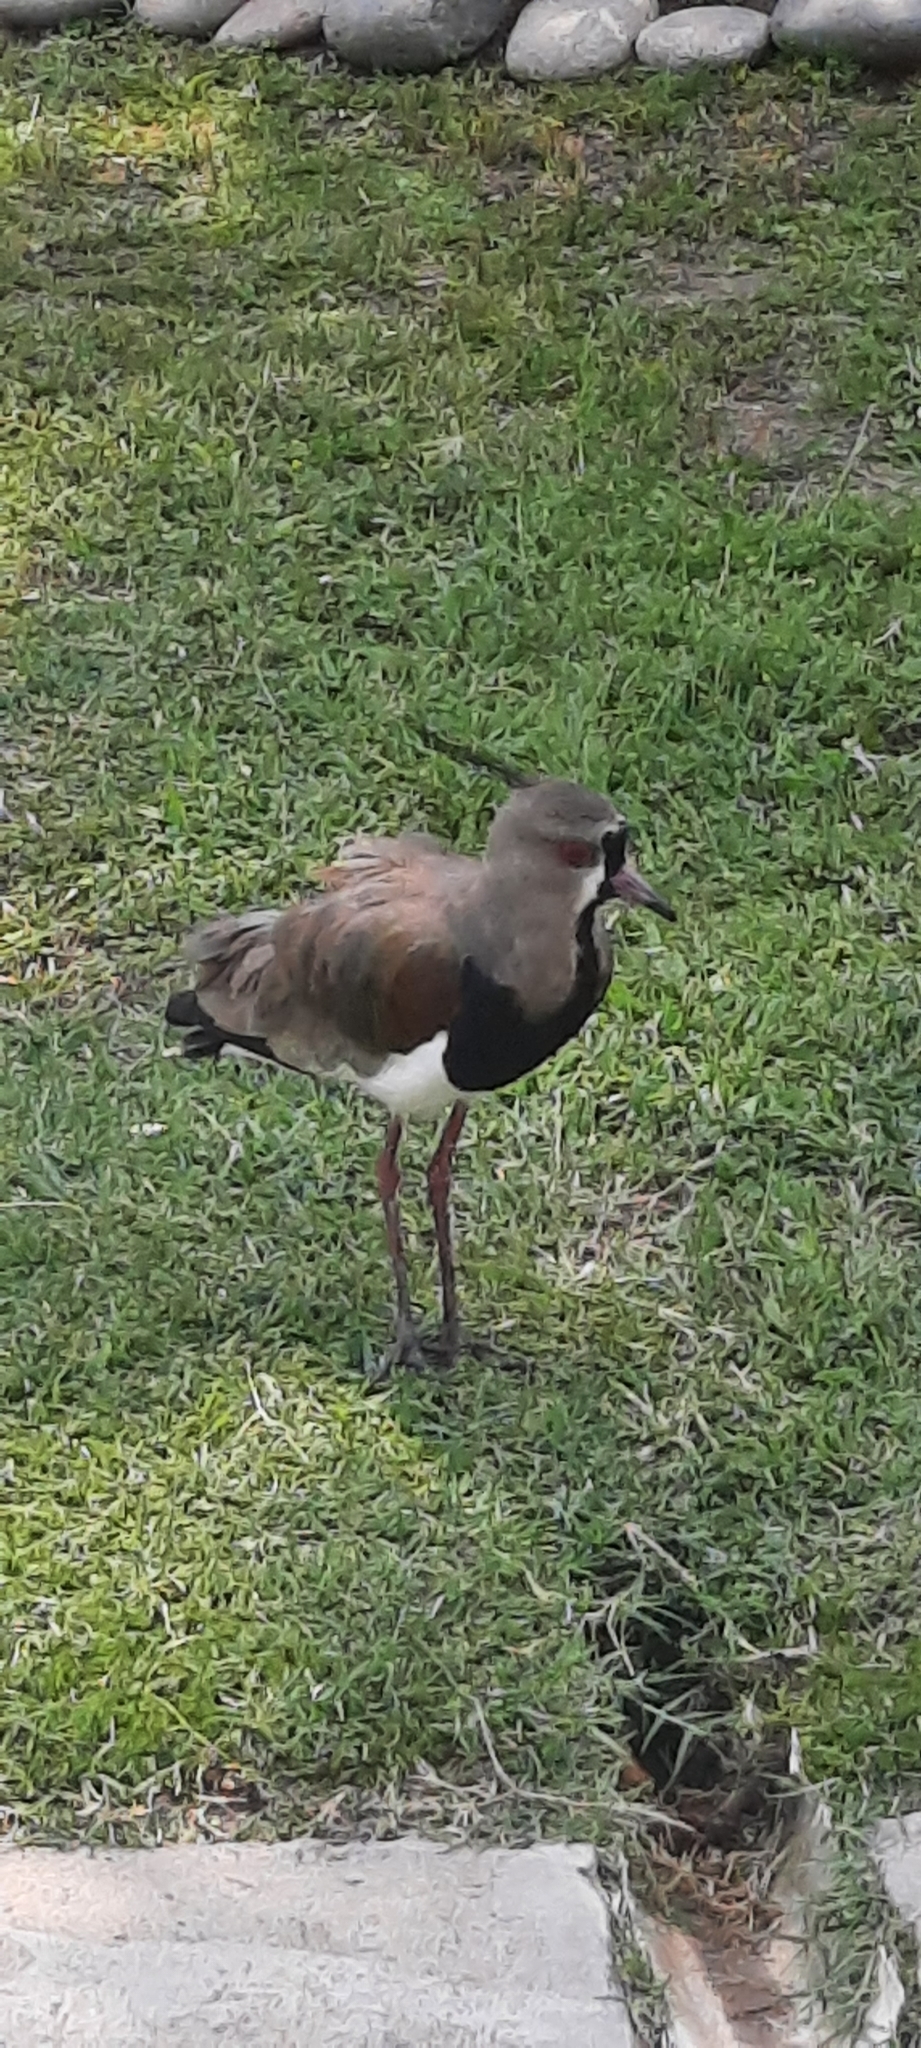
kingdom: Animalia
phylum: Chordata
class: Aves
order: Charadriiformes
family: Charadriidae
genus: Vanellus
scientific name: Vanellus chilensis
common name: Southern lapwing
